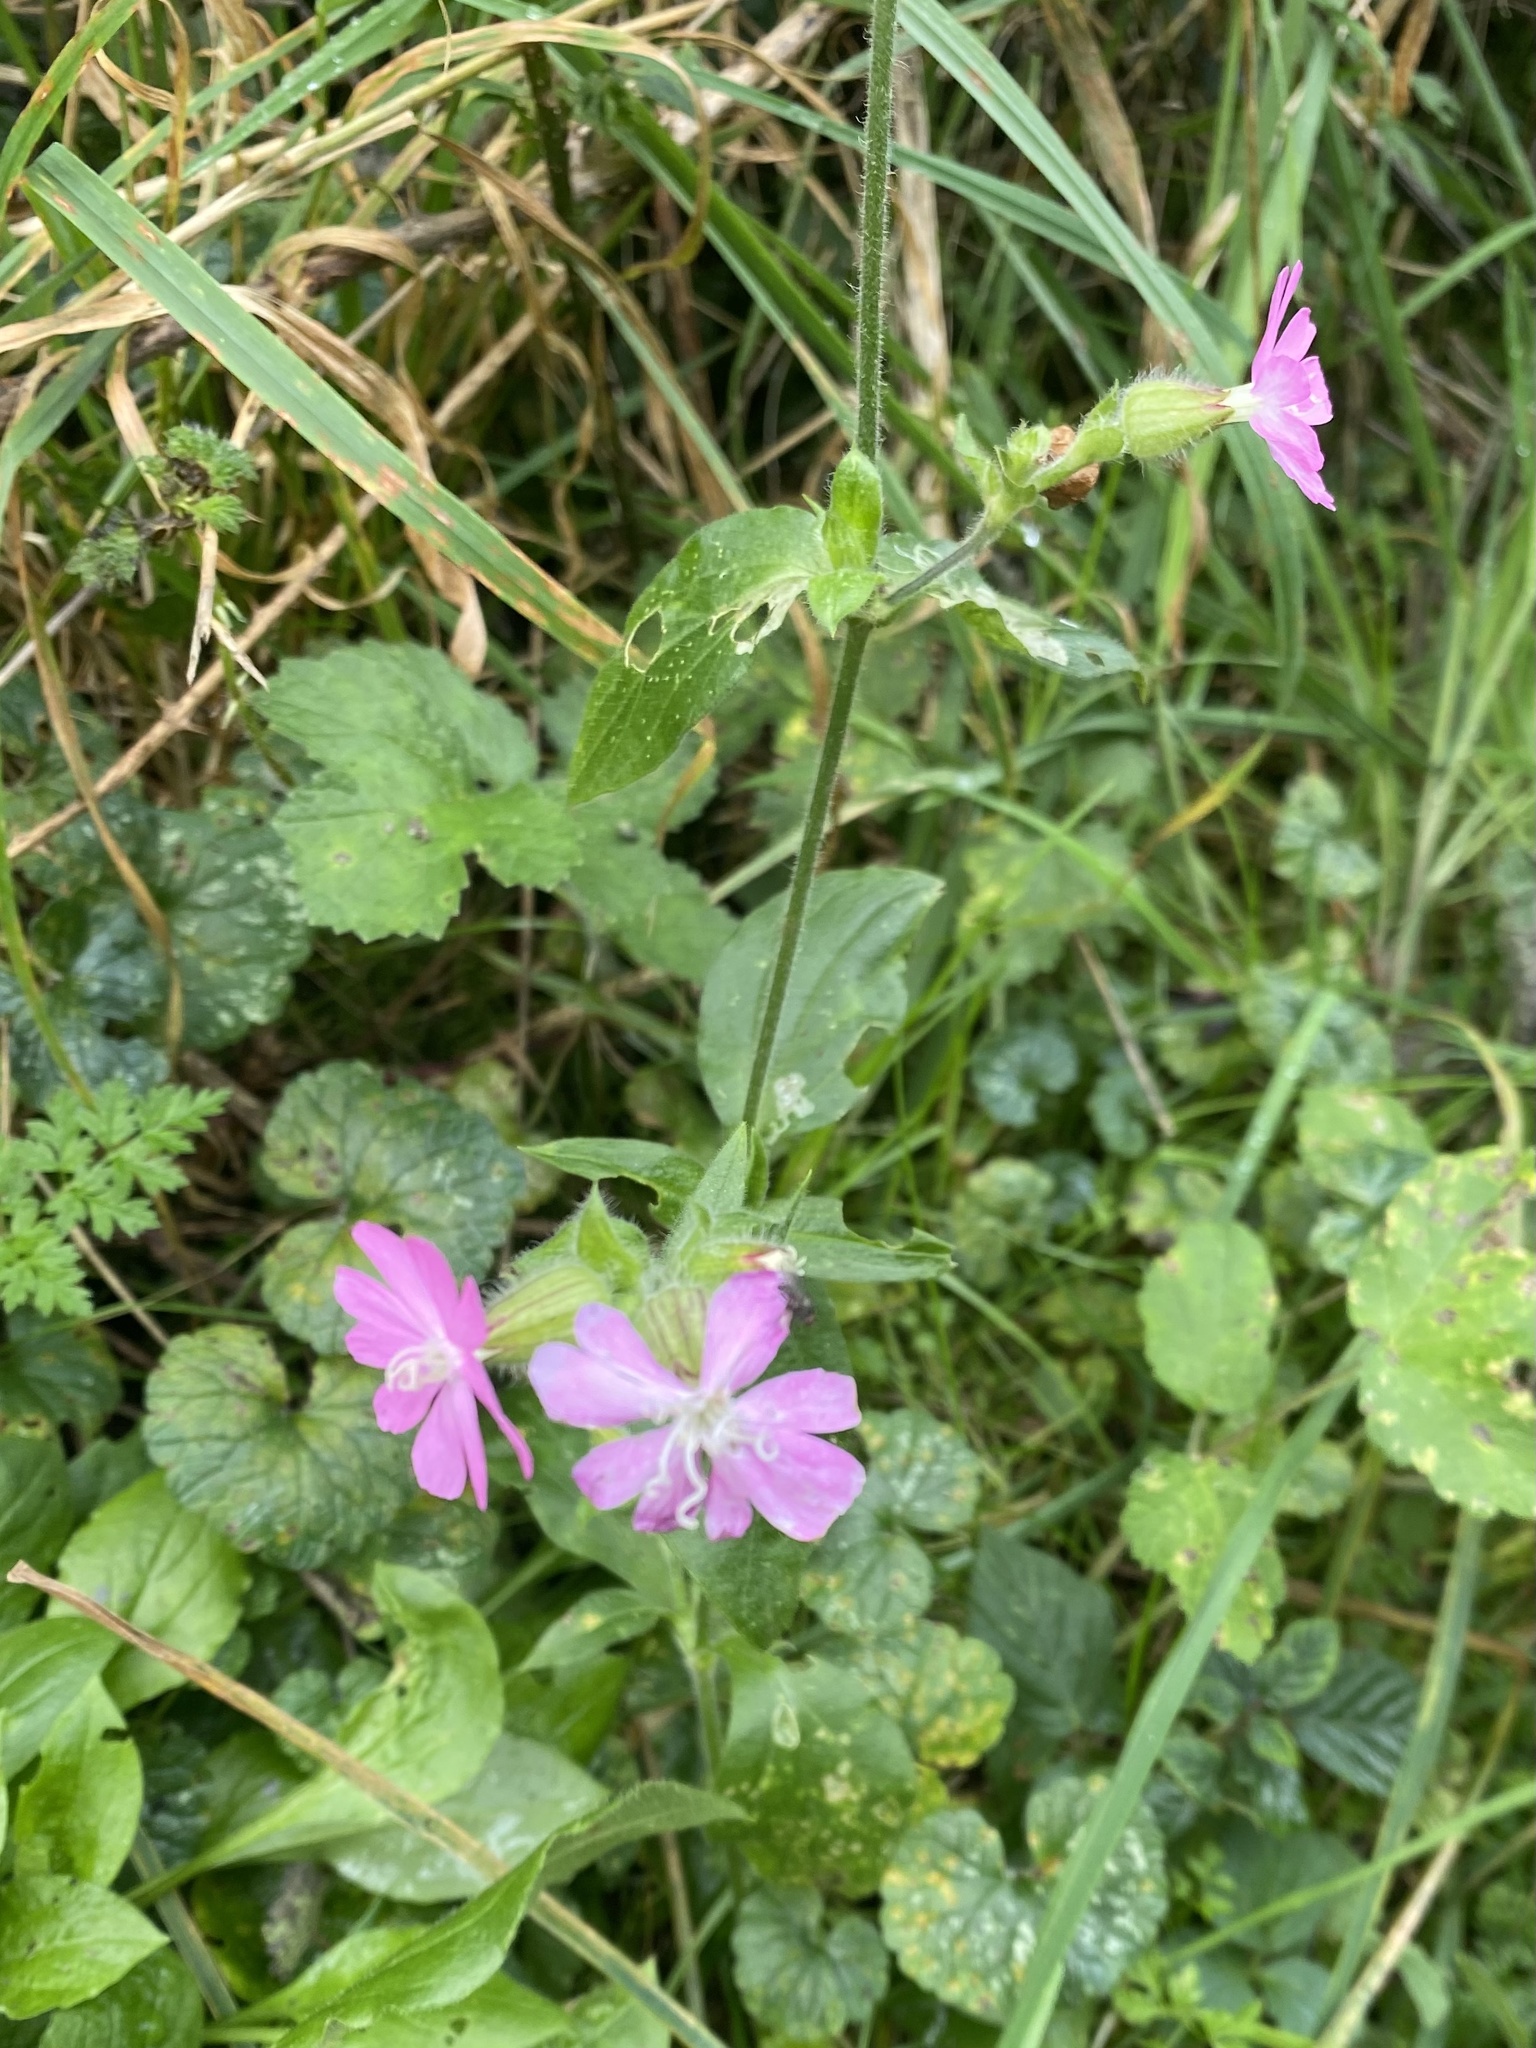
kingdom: Plantae
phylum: Tracheophyta
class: Magnoliopsida
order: Caryophyllales
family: Caryophyllaceae
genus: Silene
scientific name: Silene dioica
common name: Red campion
